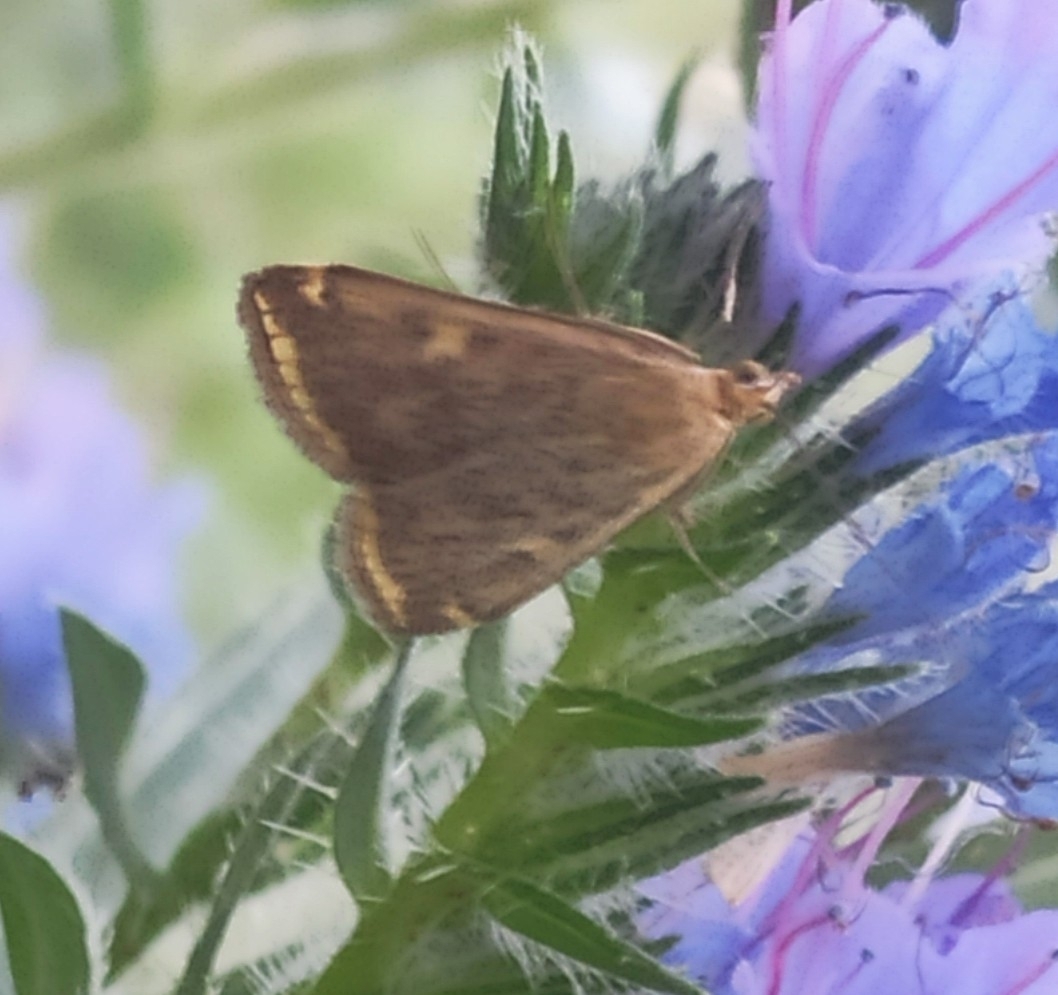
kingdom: Animalia
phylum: Arthropoda
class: Insecta
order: Lepidoptera
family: Crambidae
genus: Loxostege
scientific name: Loxostege sticticalis
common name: Crambid moth
